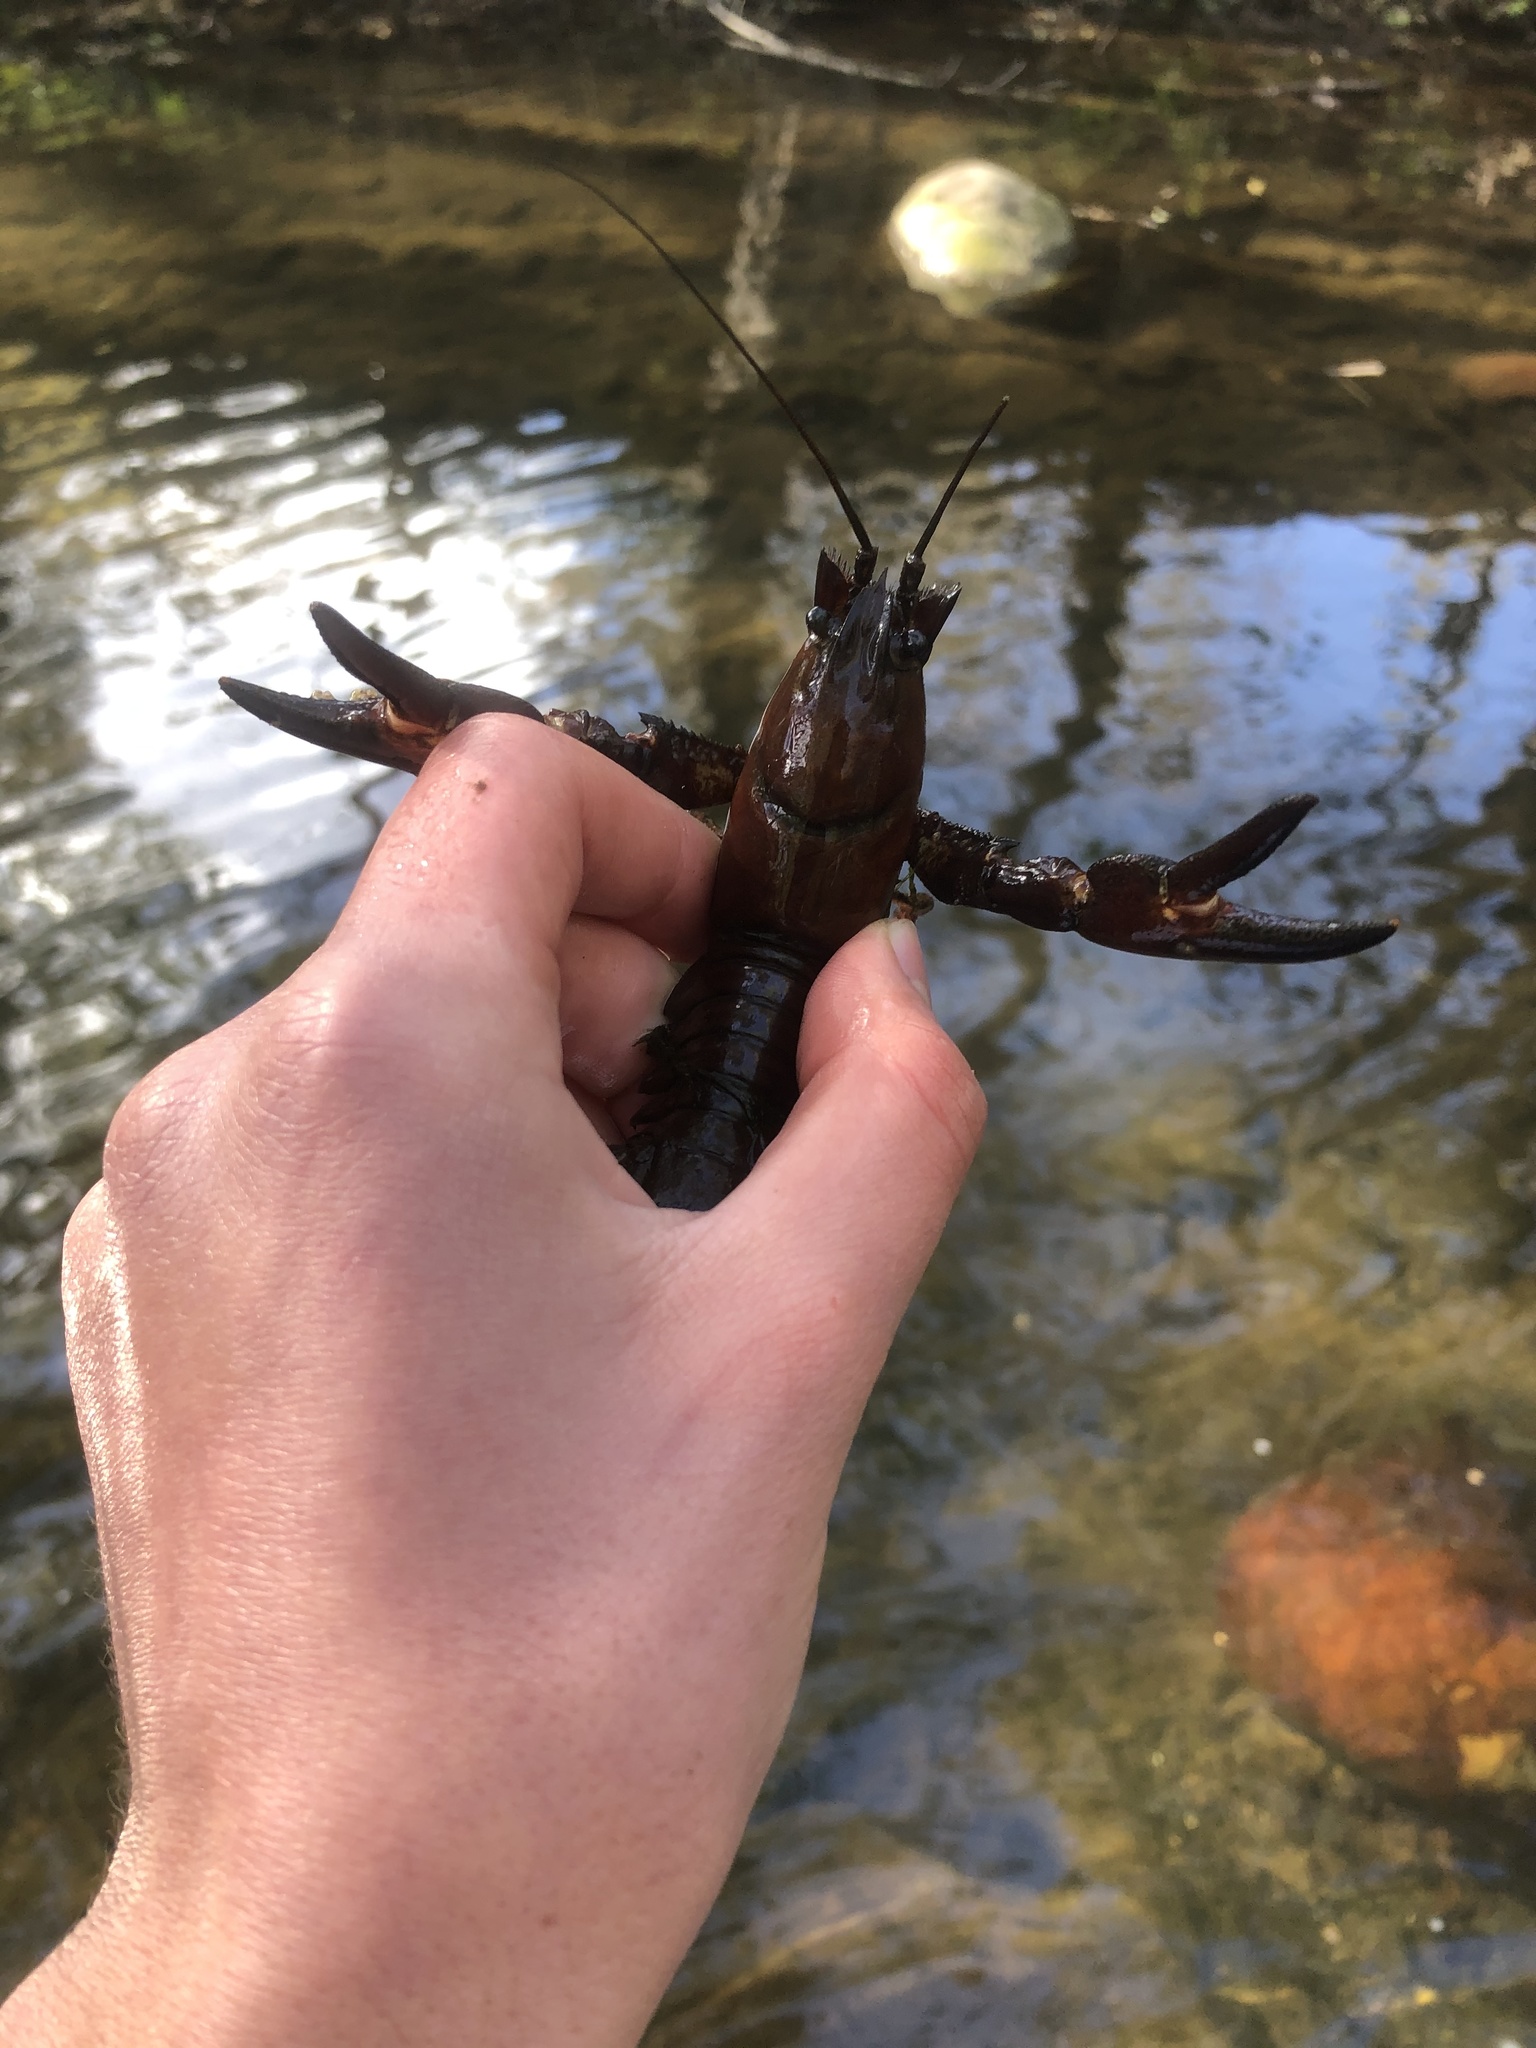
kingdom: Animalia
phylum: Arthropoda
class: Malacostraca
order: Decapoda
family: Astacidae
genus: Pacifastacus
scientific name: Pacifastacus leniusculus
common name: Signal crayfish
